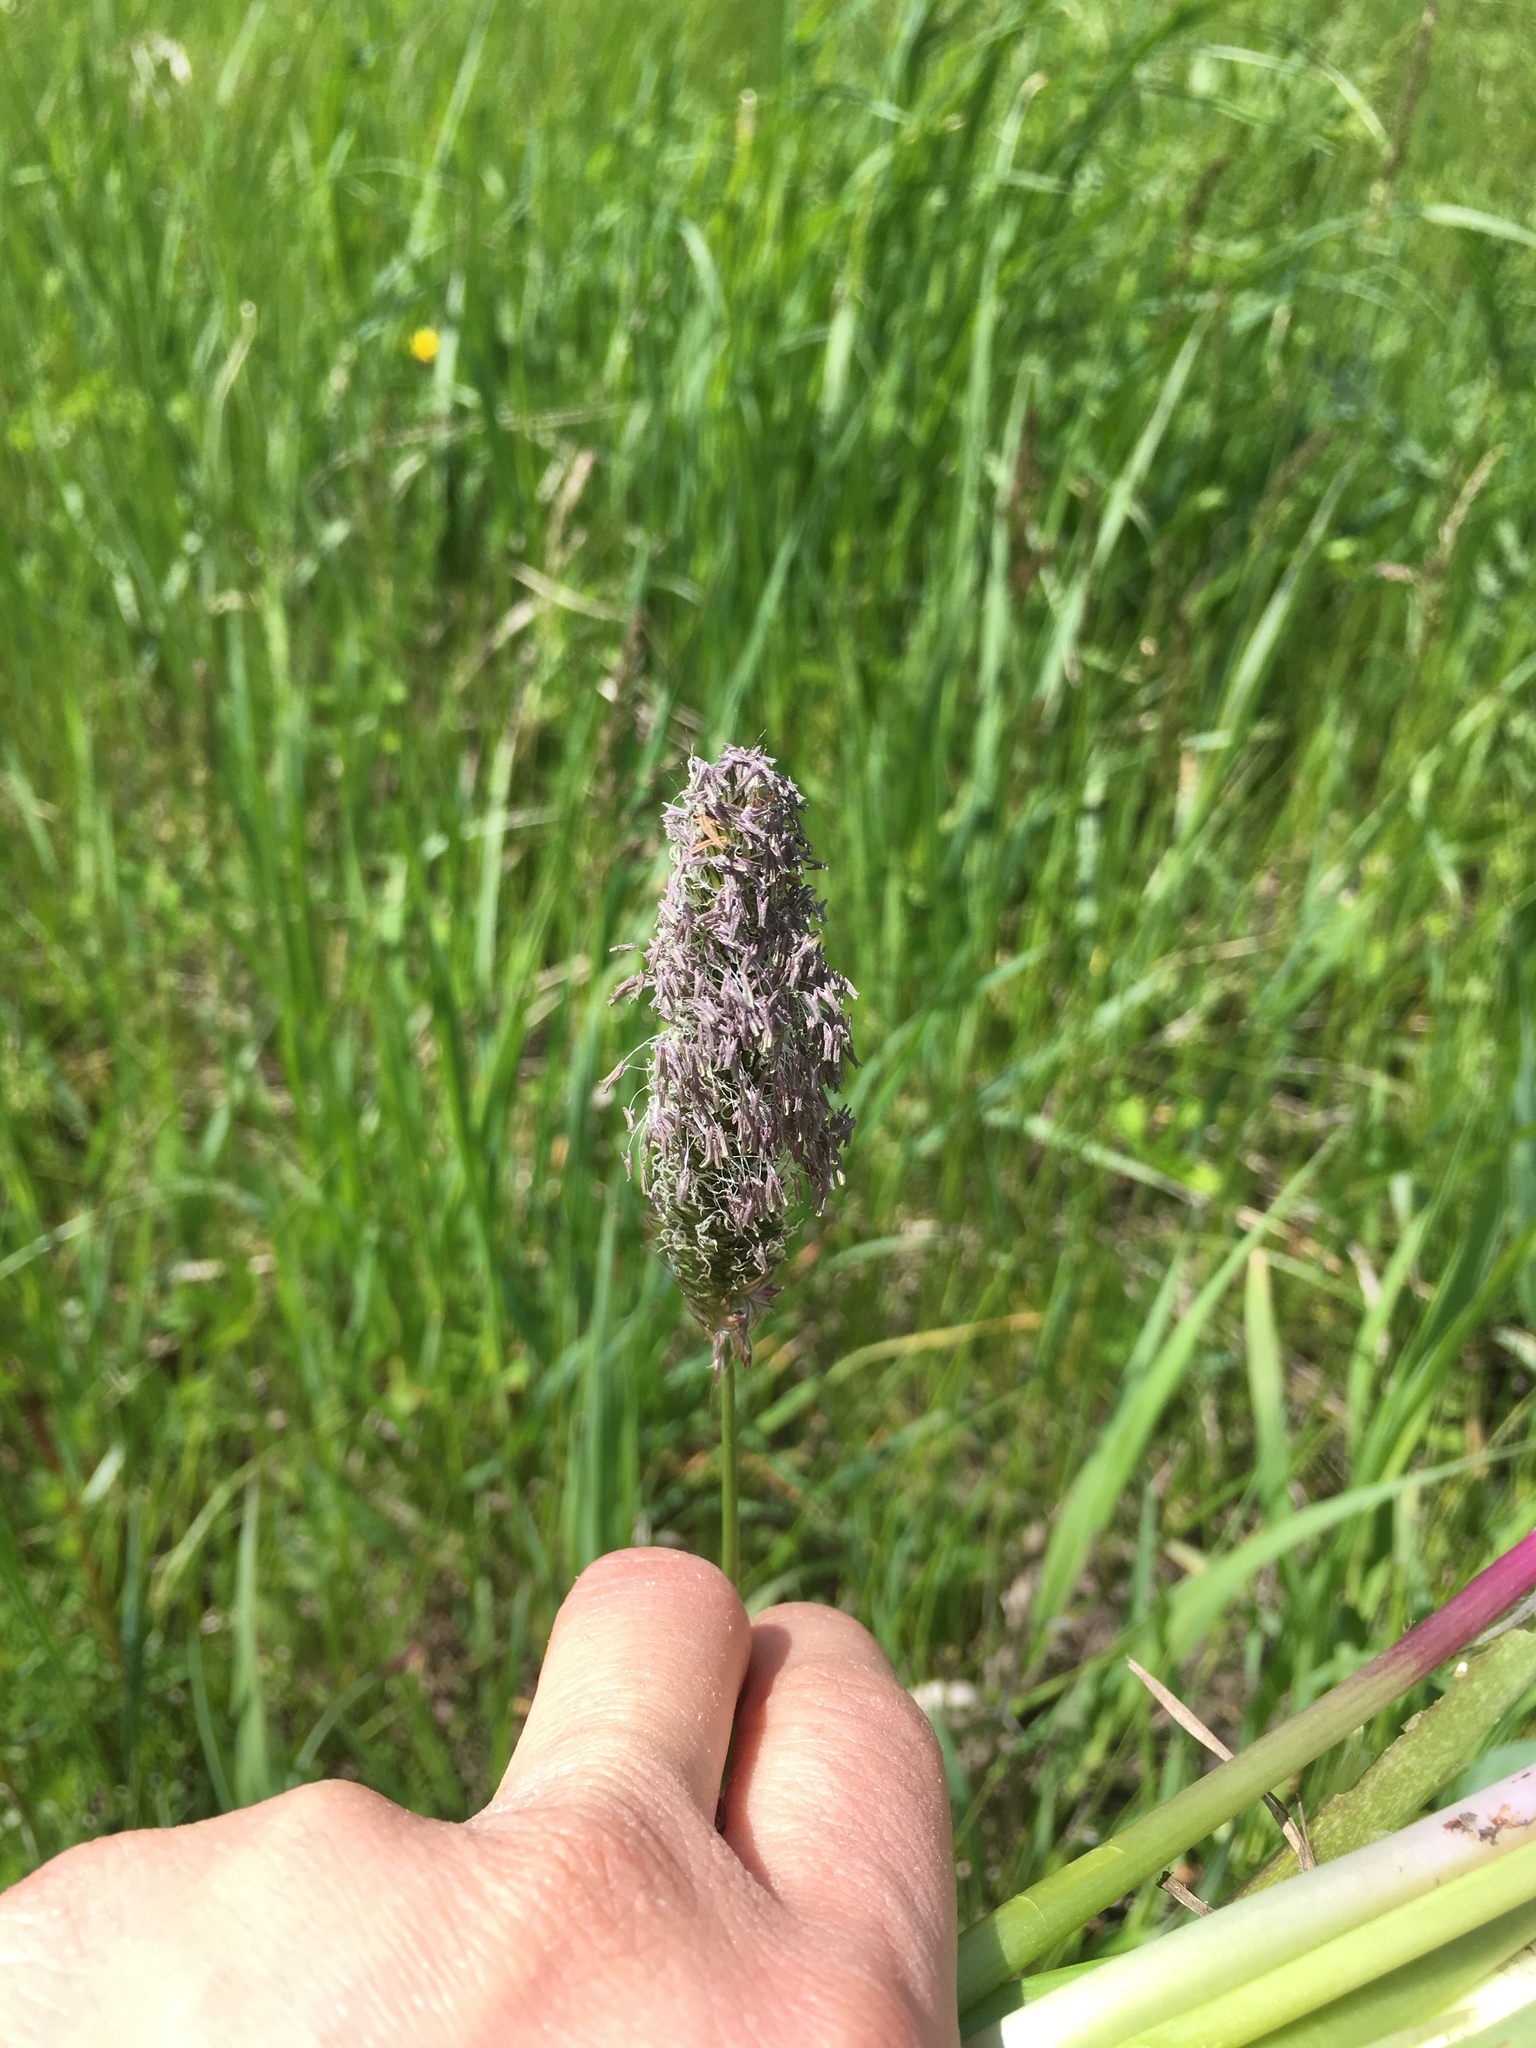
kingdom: Plantae
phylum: Tracheophyta
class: Liliopsida
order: Poales
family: Poaceae
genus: Alopecurus
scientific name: Alopecurus pratensis
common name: Meadow foxtail
